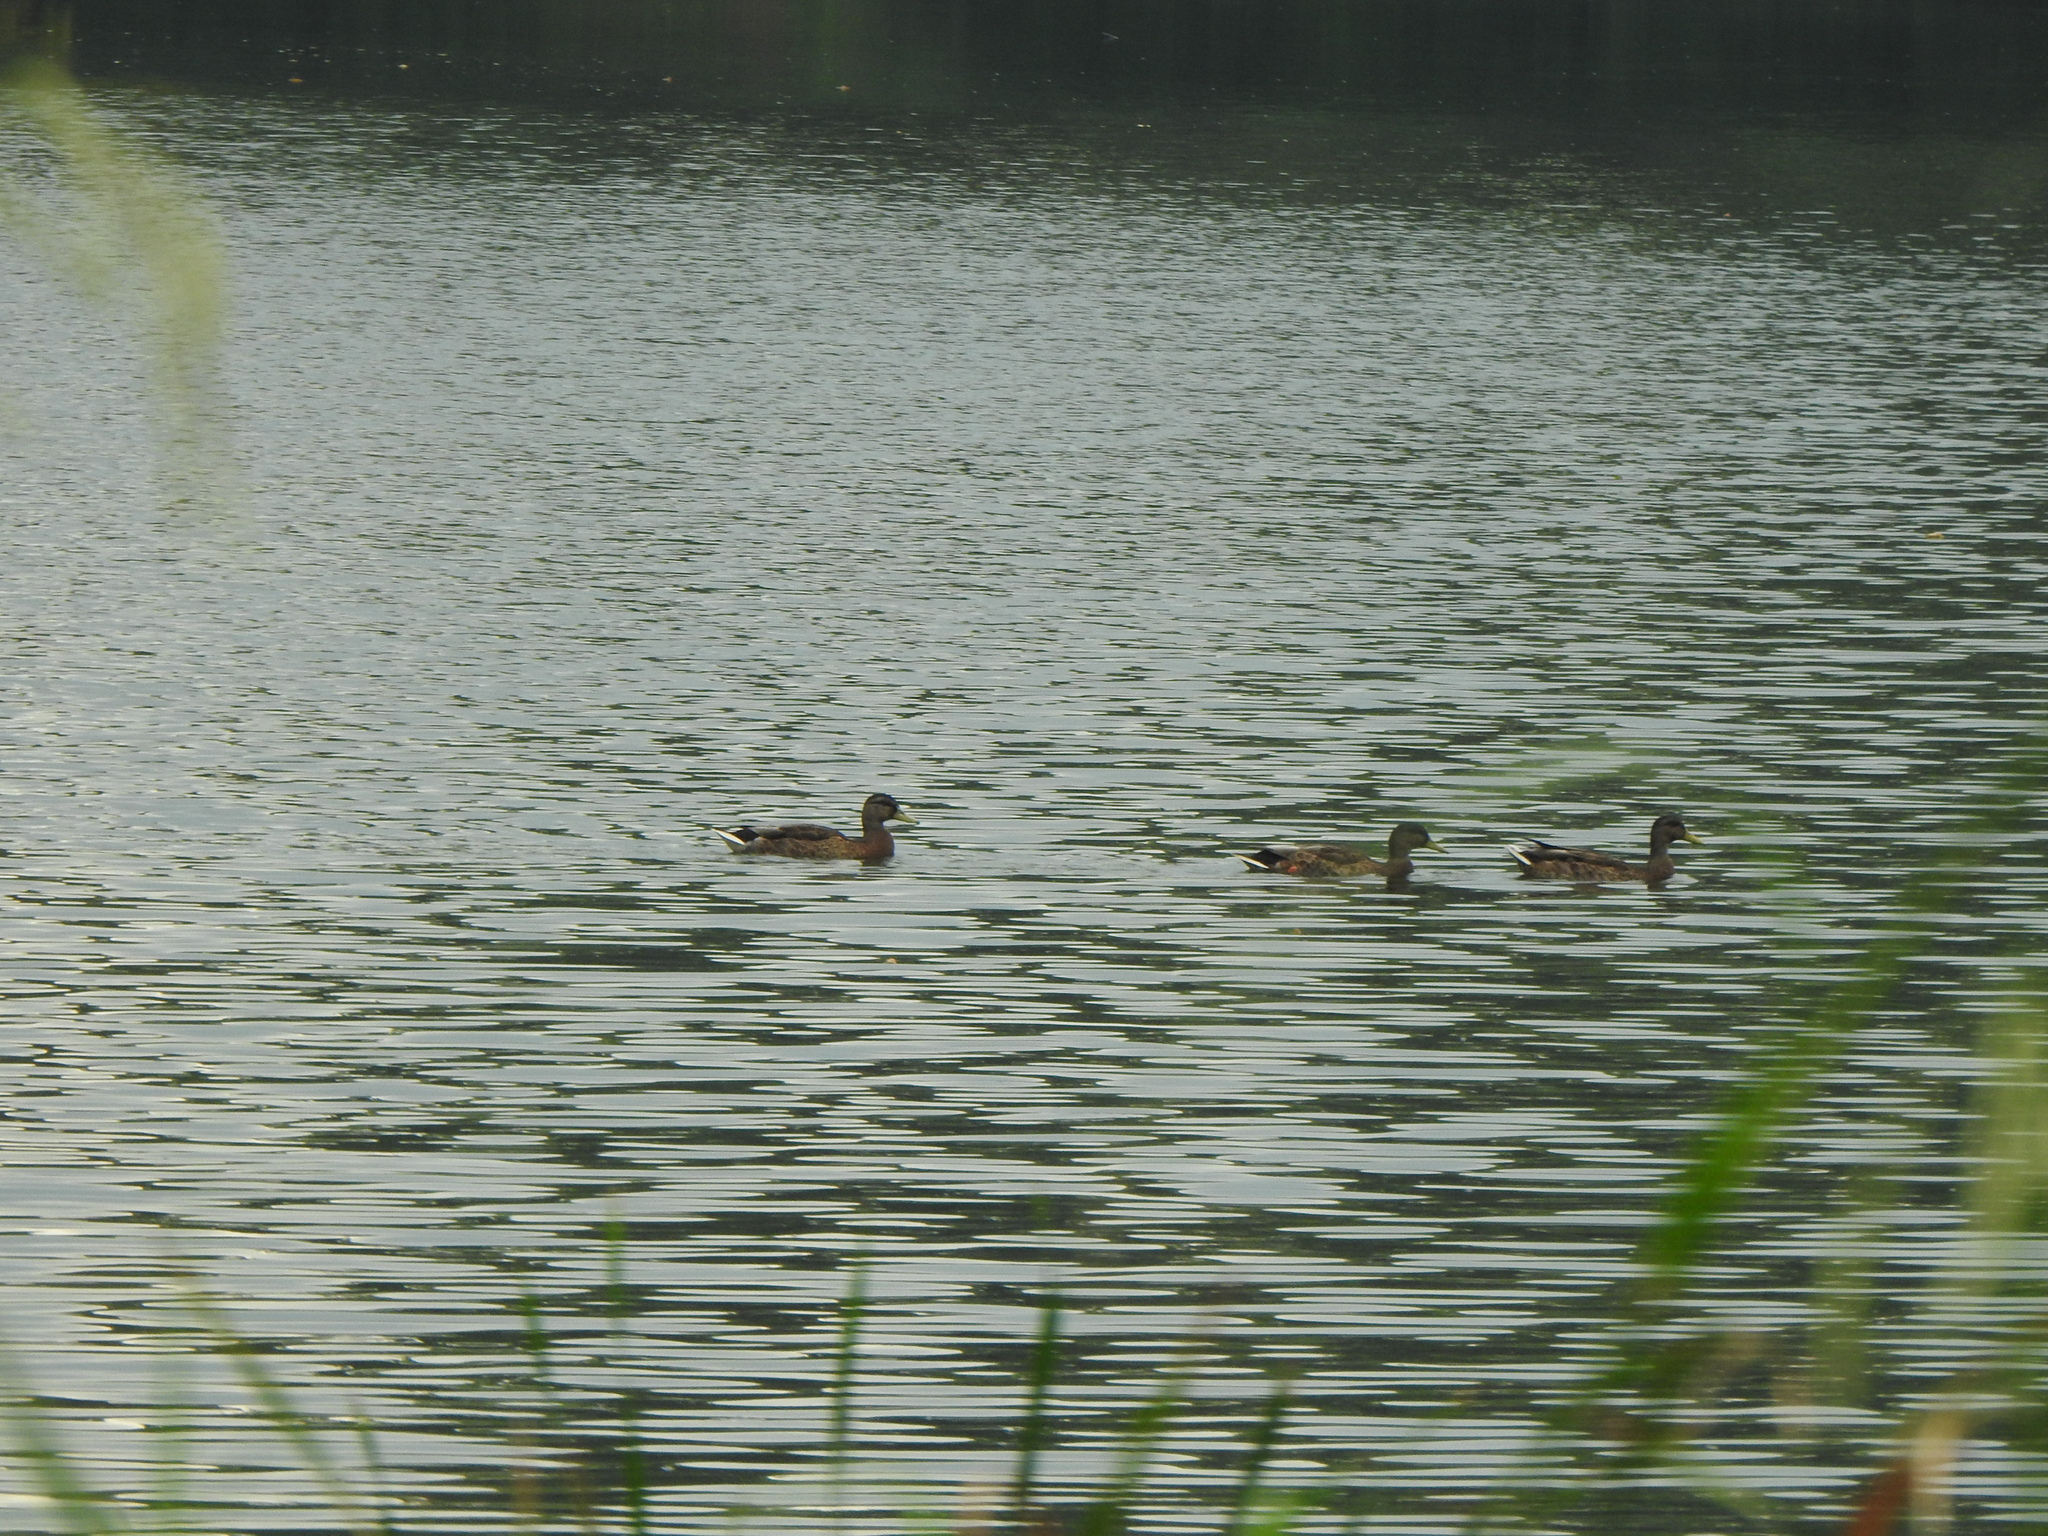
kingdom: Animalia
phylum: Chordata
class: Aves
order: Anseriformes
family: Anatidae
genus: Anas
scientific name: Anas platyrhynchos
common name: Mallard
